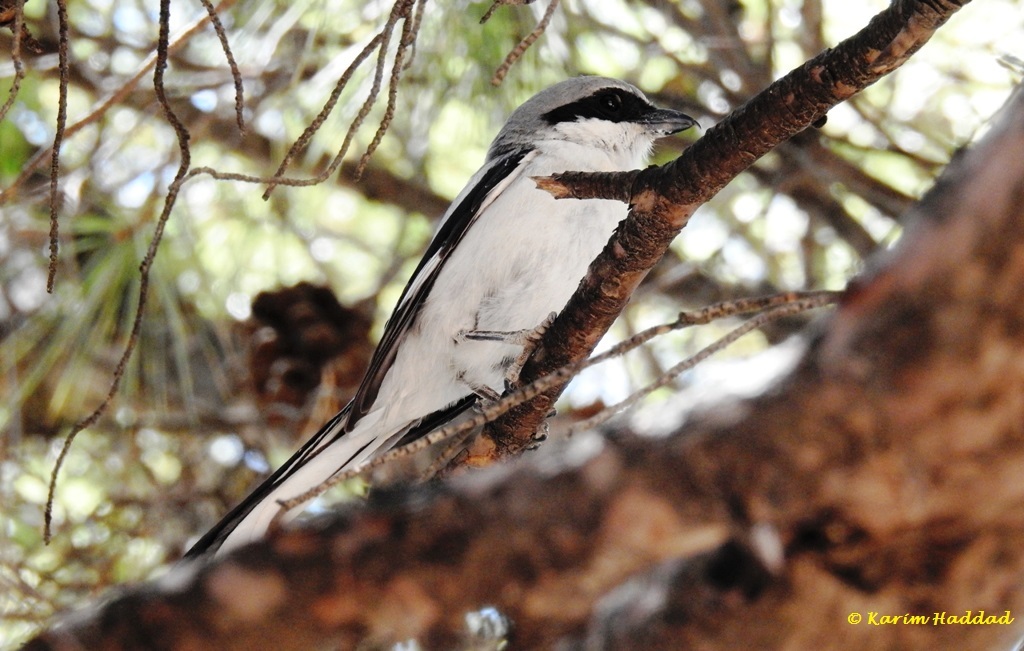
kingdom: Animalia
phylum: Chordata
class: Aves
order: Passeriformes
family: Laniidae
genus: Lanius
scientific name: Lanius excubitor
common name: Great grey shrike
